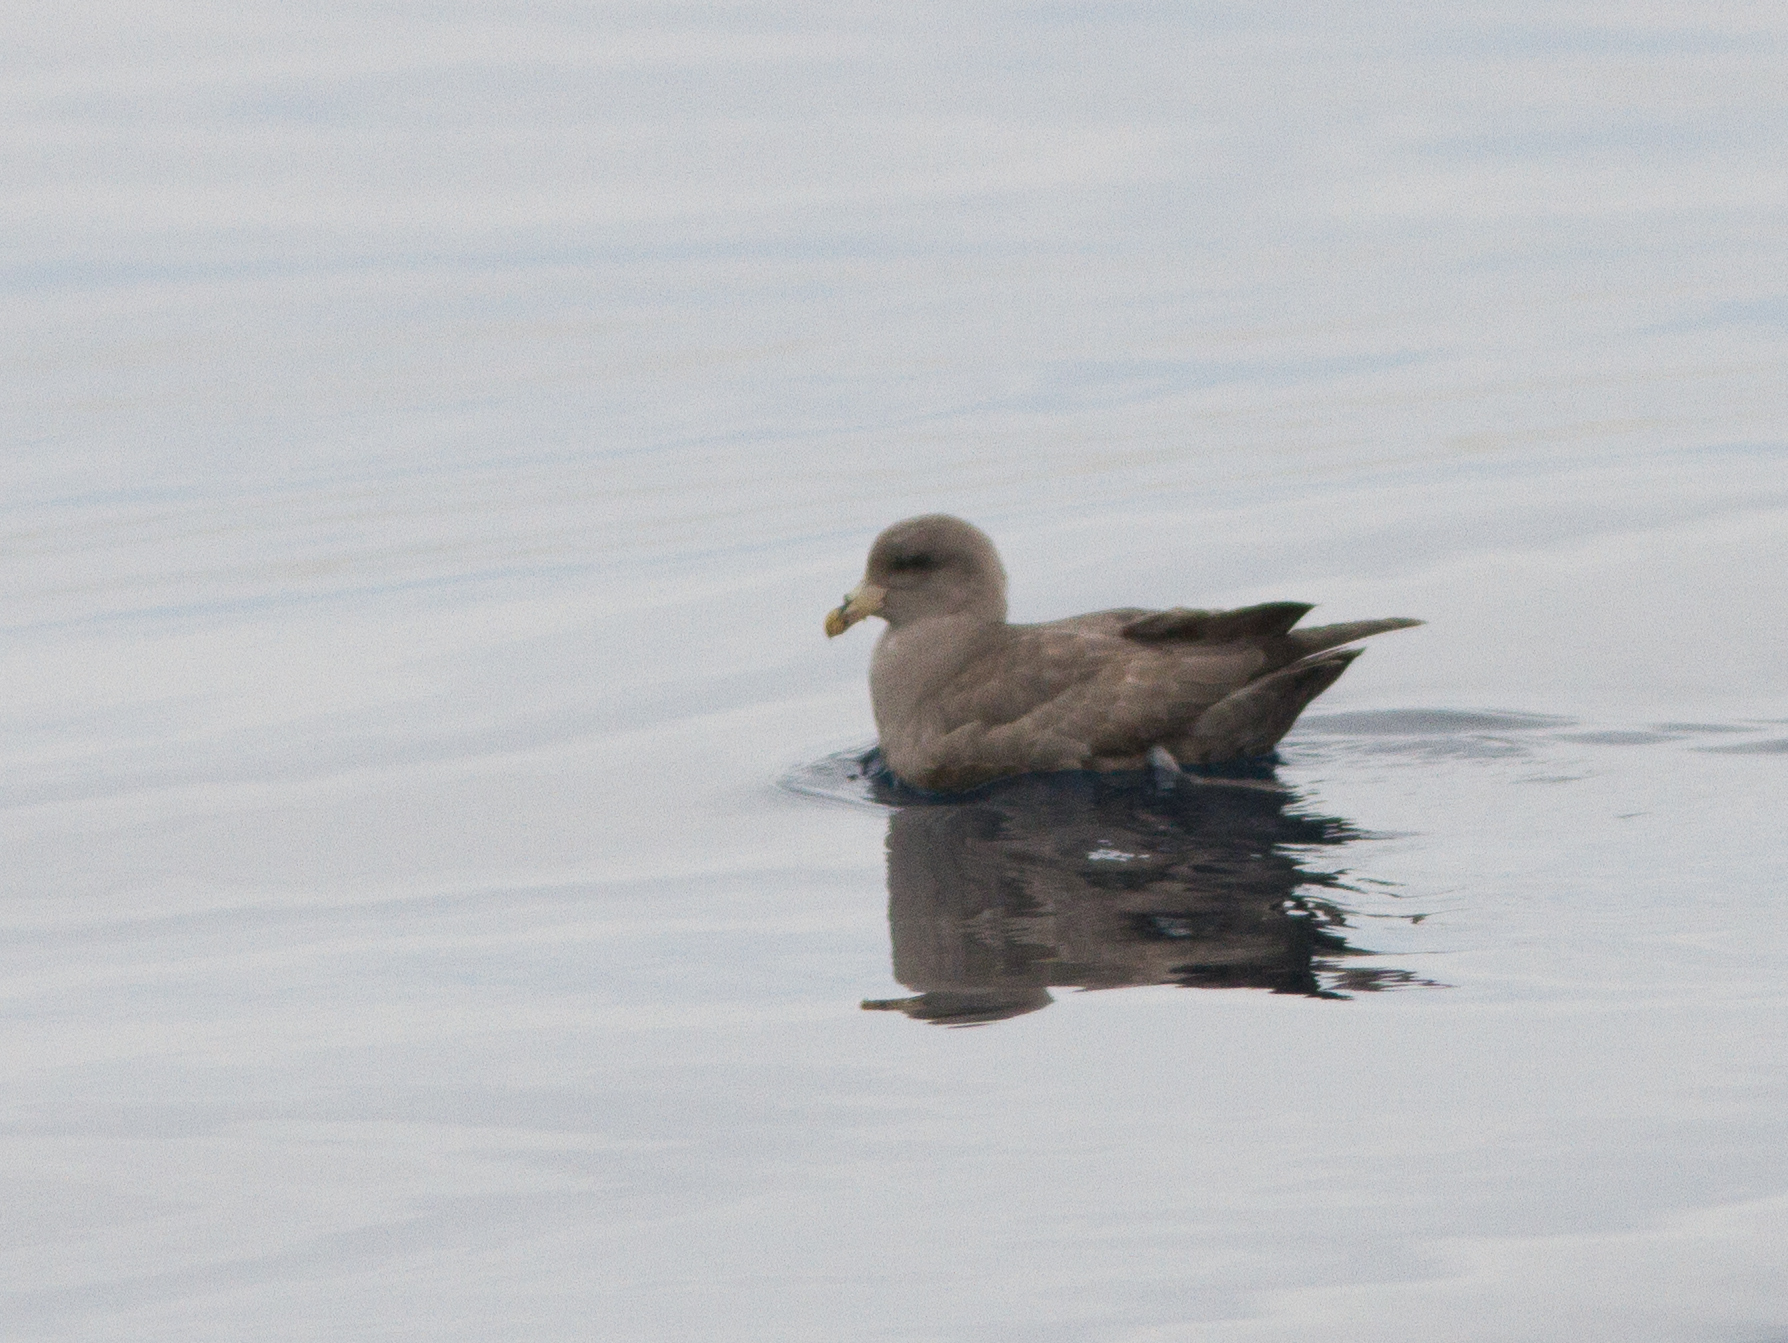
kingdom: Animalia
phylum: Chordata
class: Aves
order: Procellariiformes
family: Procellariidae
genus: Fulmarus
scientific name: Fulmarus glacialis
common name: Northern fulmar
